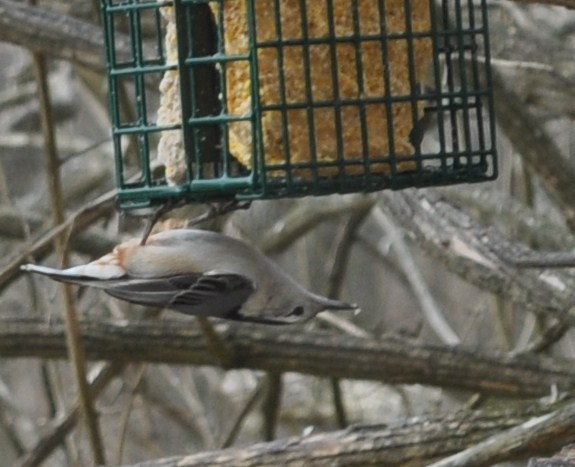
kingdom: Animalia
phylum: Chordata
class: Aves
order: Passeriformes
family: Sittidae
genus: Sitta
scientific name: Sitta carolinensis
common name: White-breasted nuthatch
